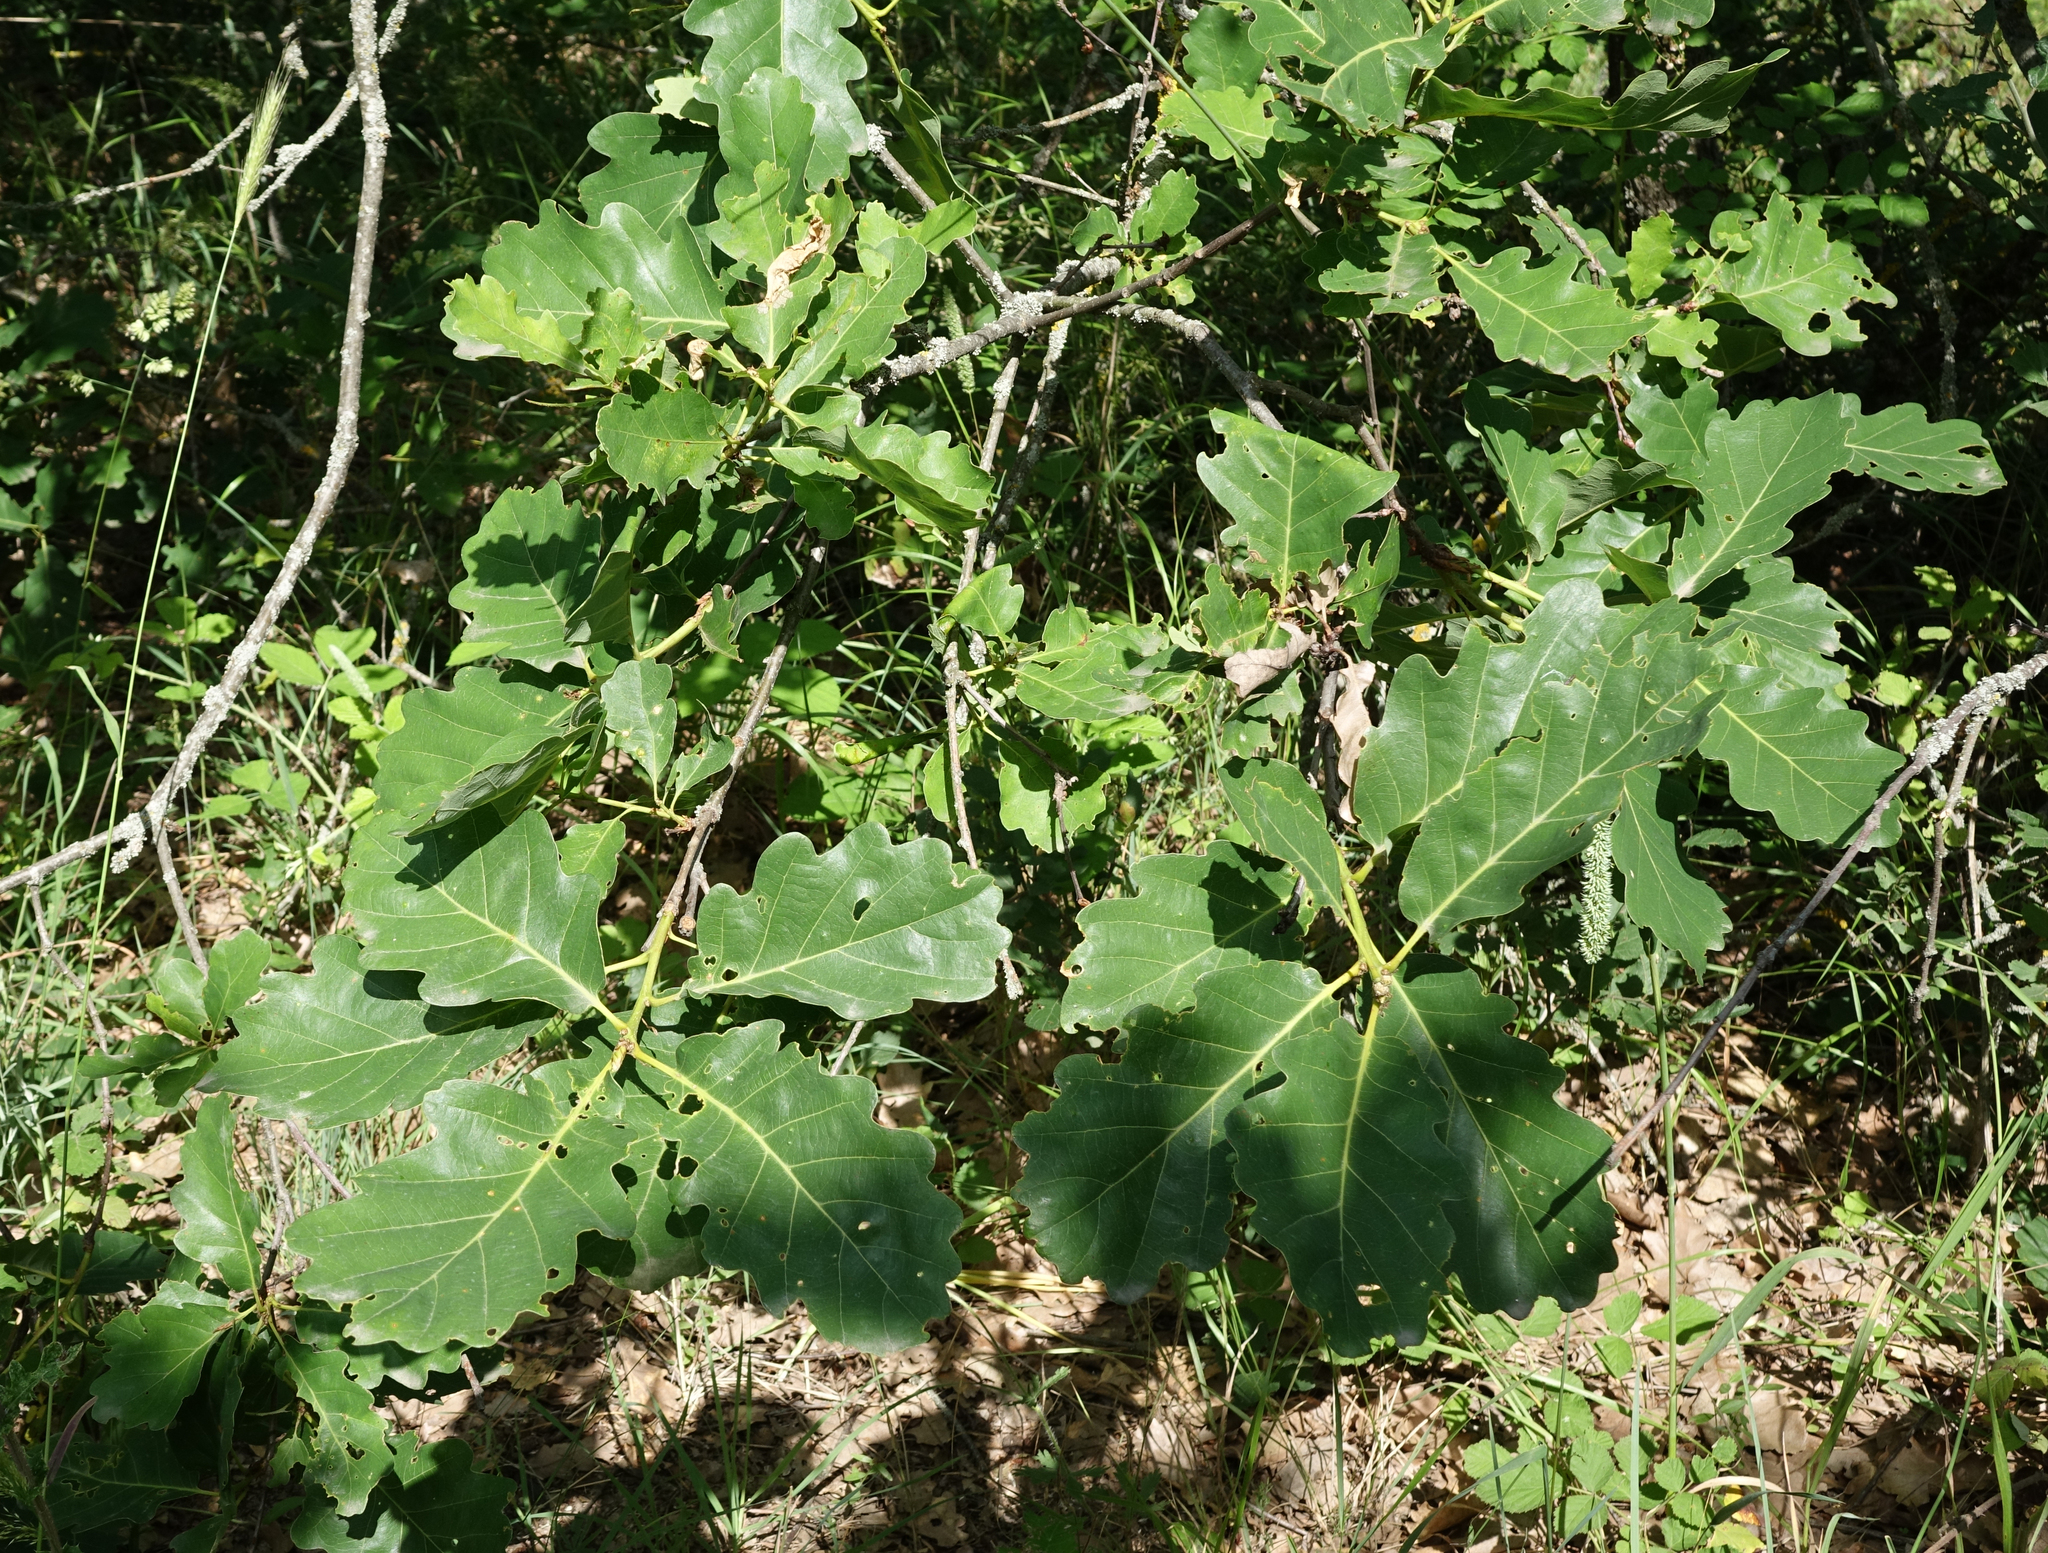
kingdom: Plantae
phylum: Tracheophyta
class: Magnoliopsida
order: Fagales
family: Fagaceae
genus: Quercus
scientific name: Quercus petraea
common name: Sessile oak
